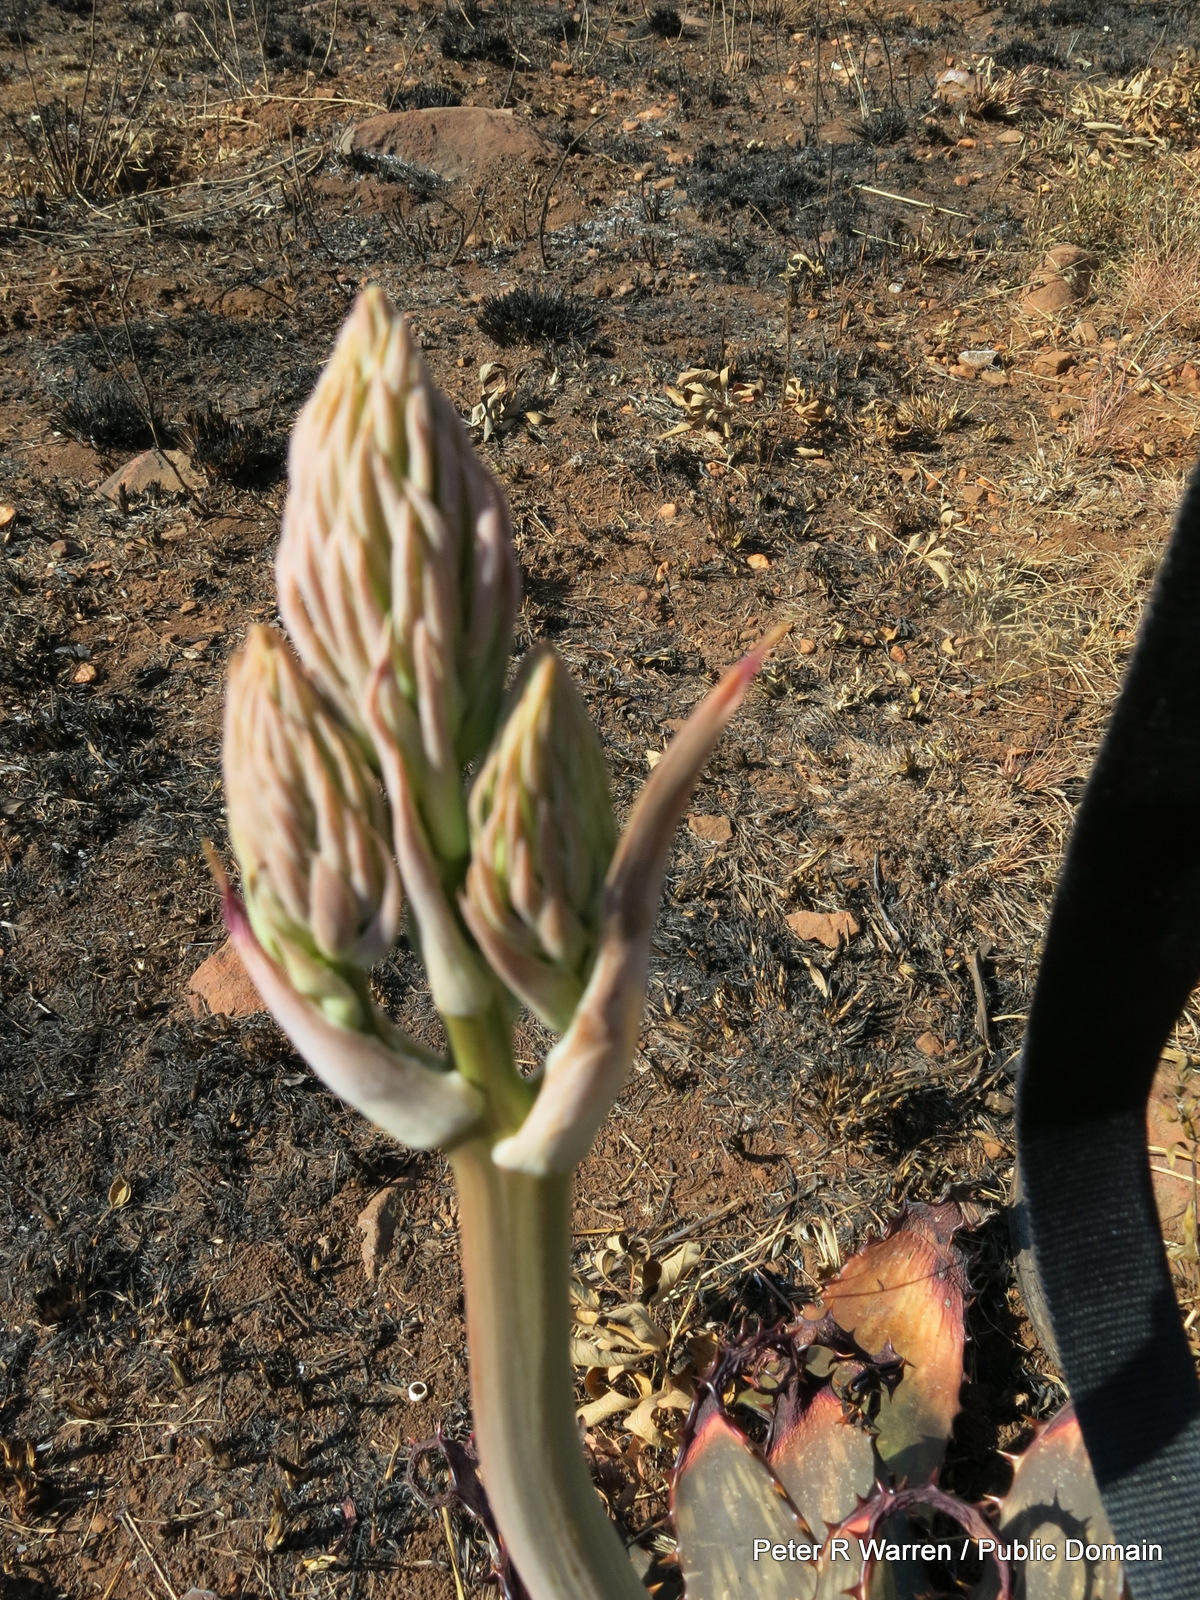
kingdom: Plantae
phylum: Tracheophyta
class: Liliopsida
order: Asparagales
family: Asphodelaceae
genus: Aloe
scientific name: Aloe davyana
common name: Spotted aloe
